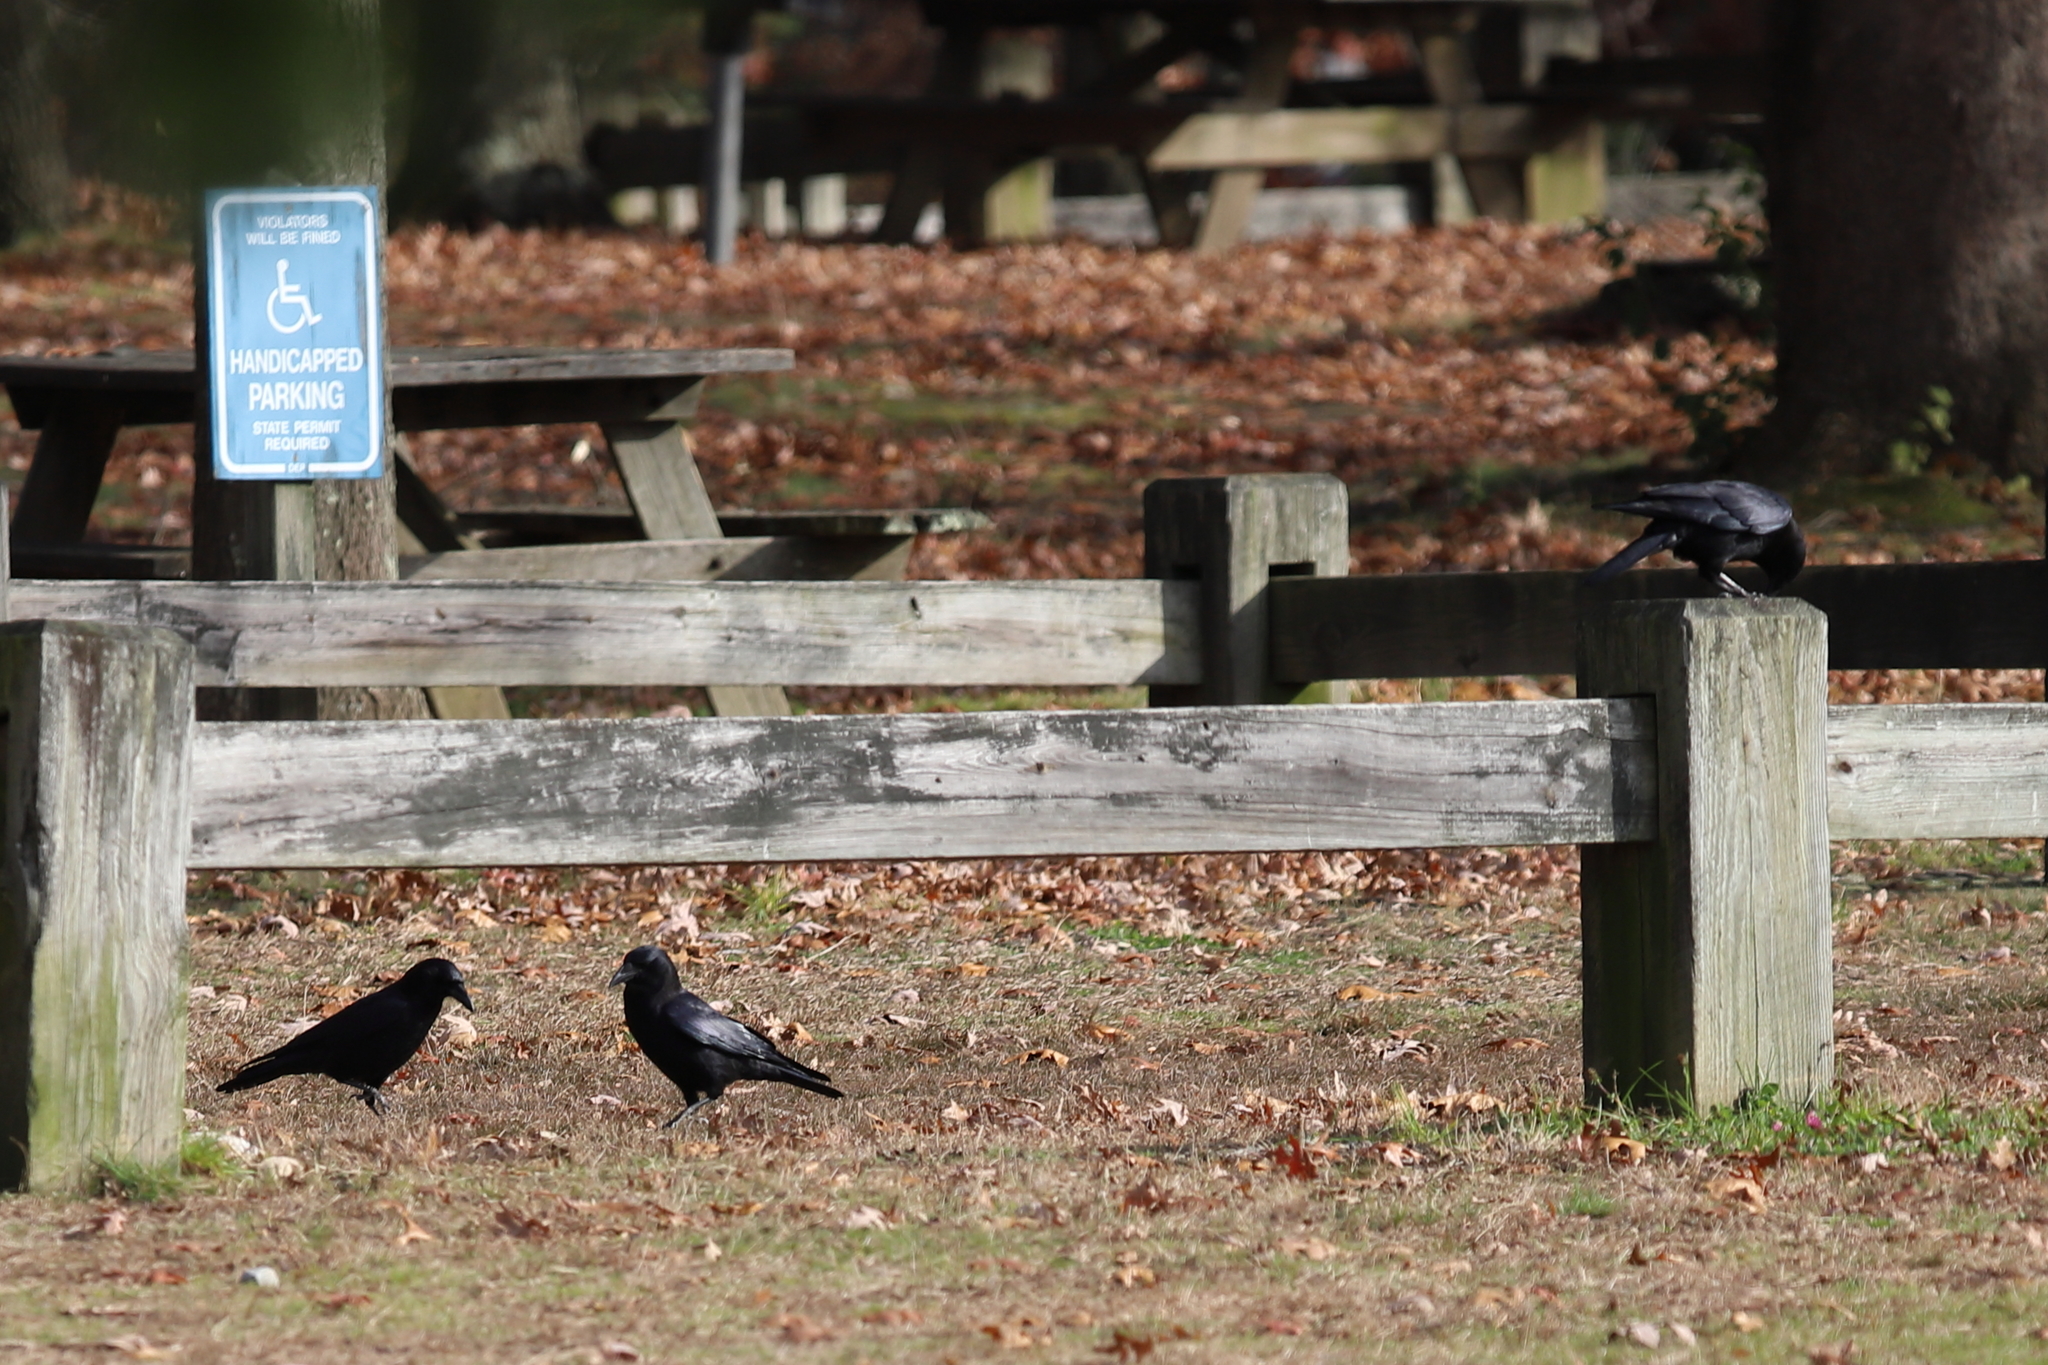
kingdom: Animalia
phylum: Chordata
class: Aves
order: Passeriformes
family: Corvidae
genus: Corvus
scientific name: Corvus brachyrhynchos
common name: American crow
